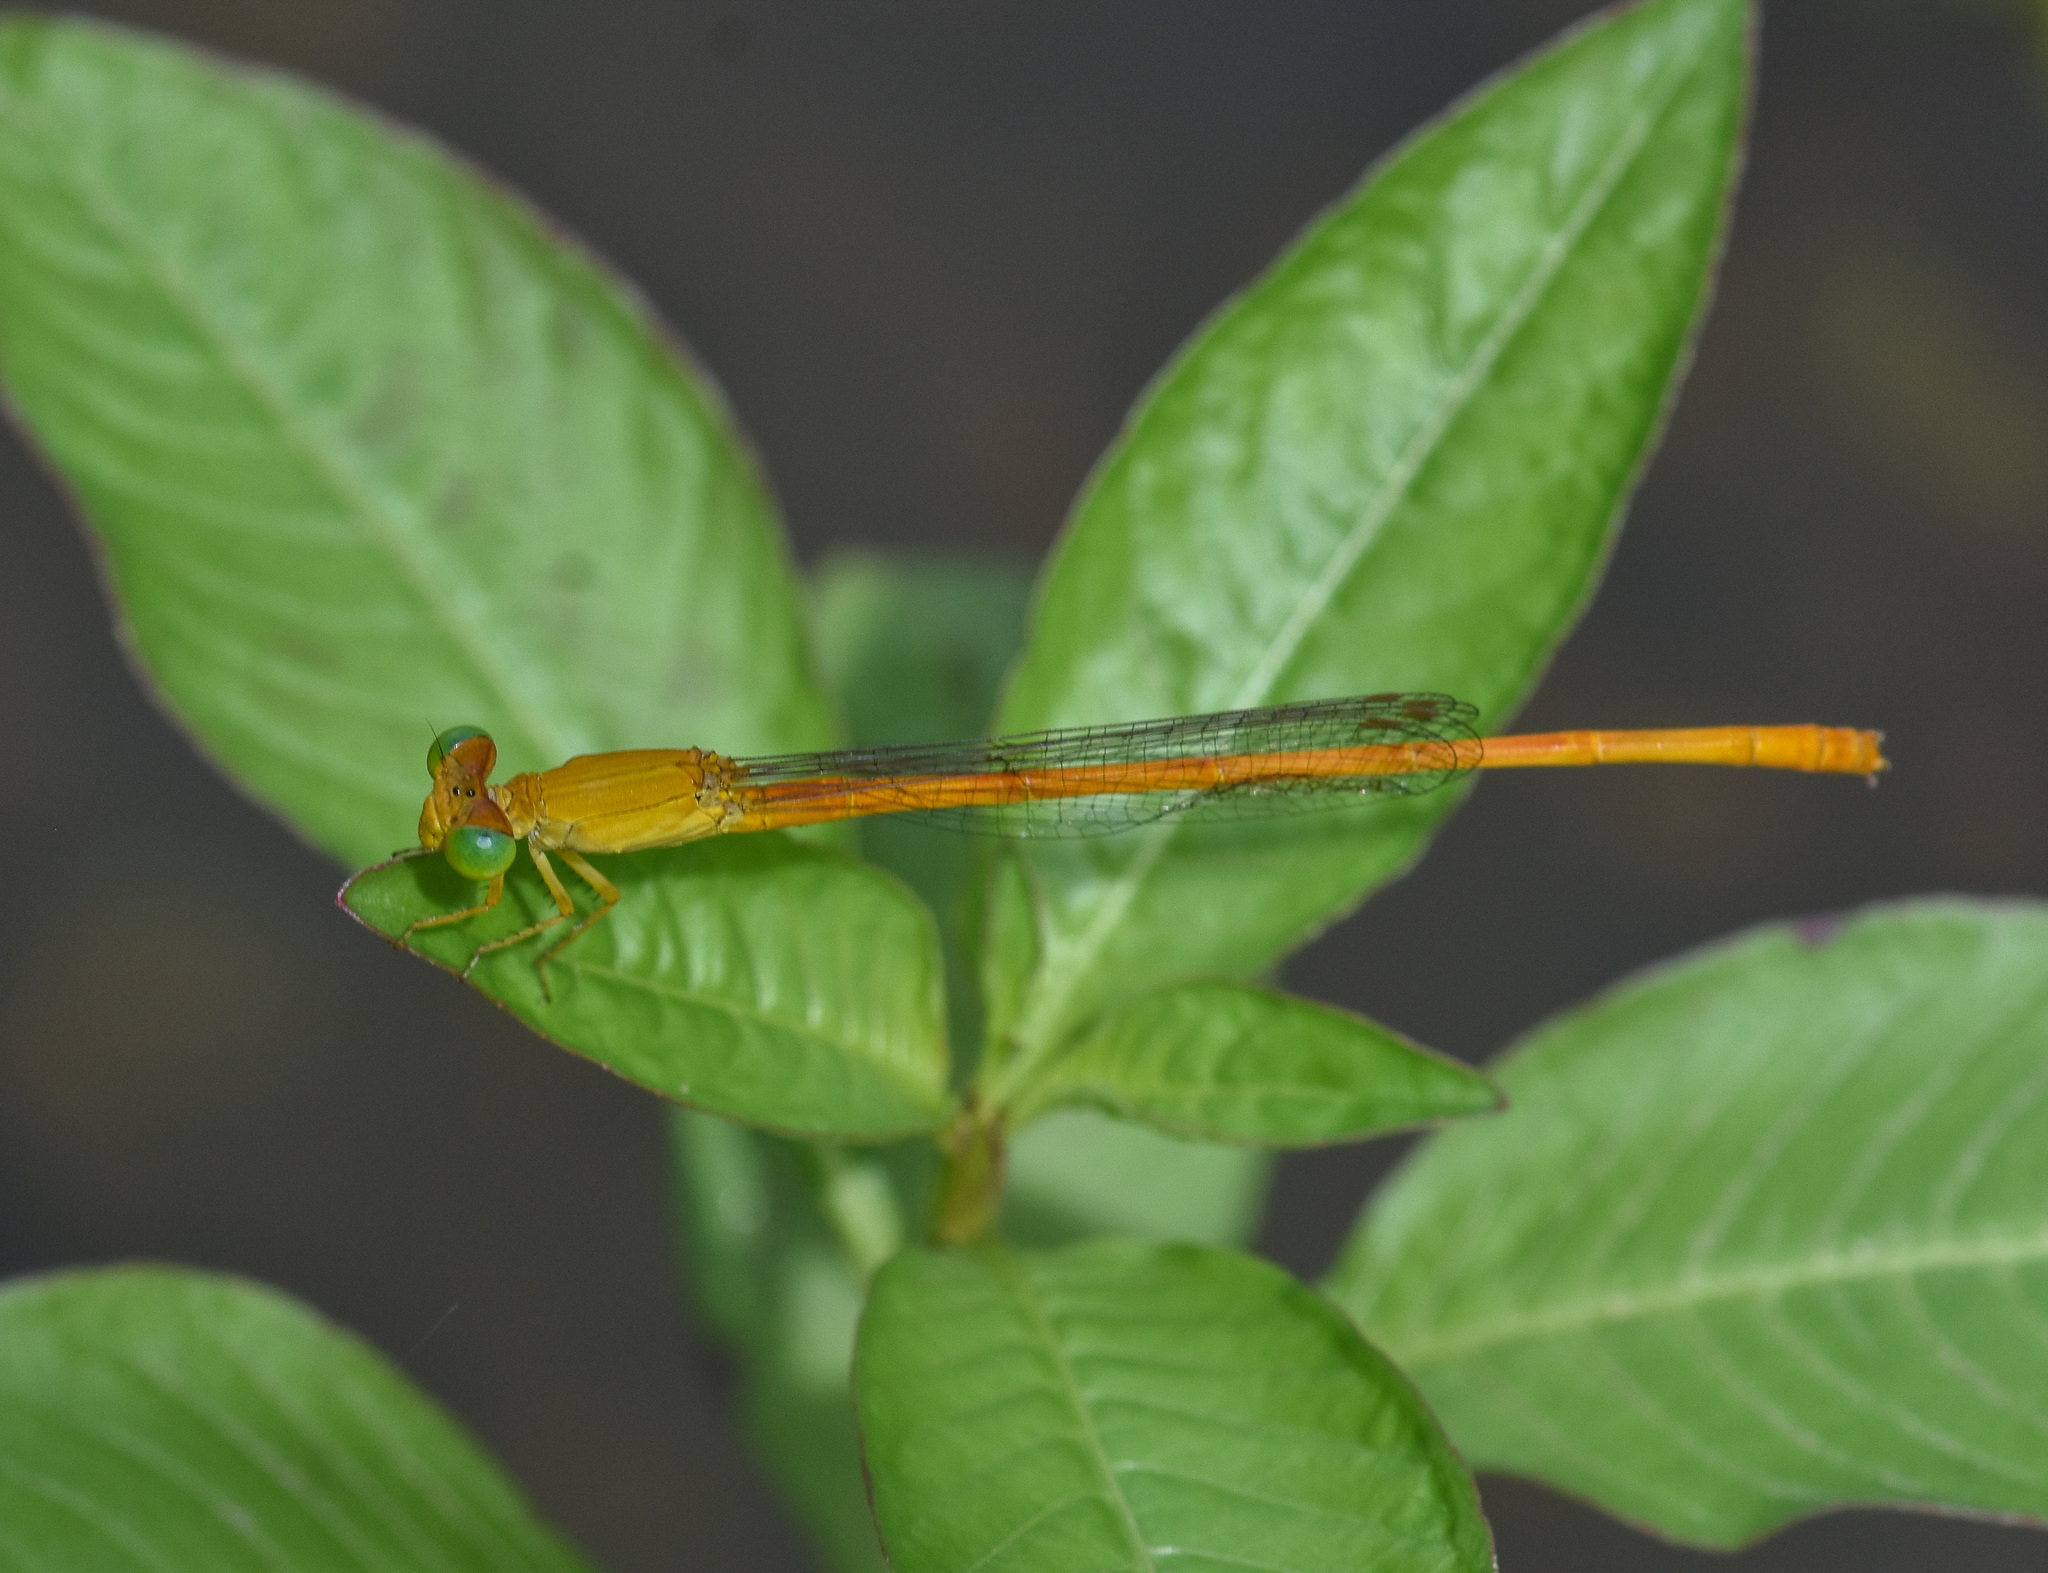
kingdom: Animalia
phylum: Arthropoda
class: Insecta
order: Odonata
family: Coenagrionidae
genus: Ceriagrion
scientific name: Ceriagrion rubiae
